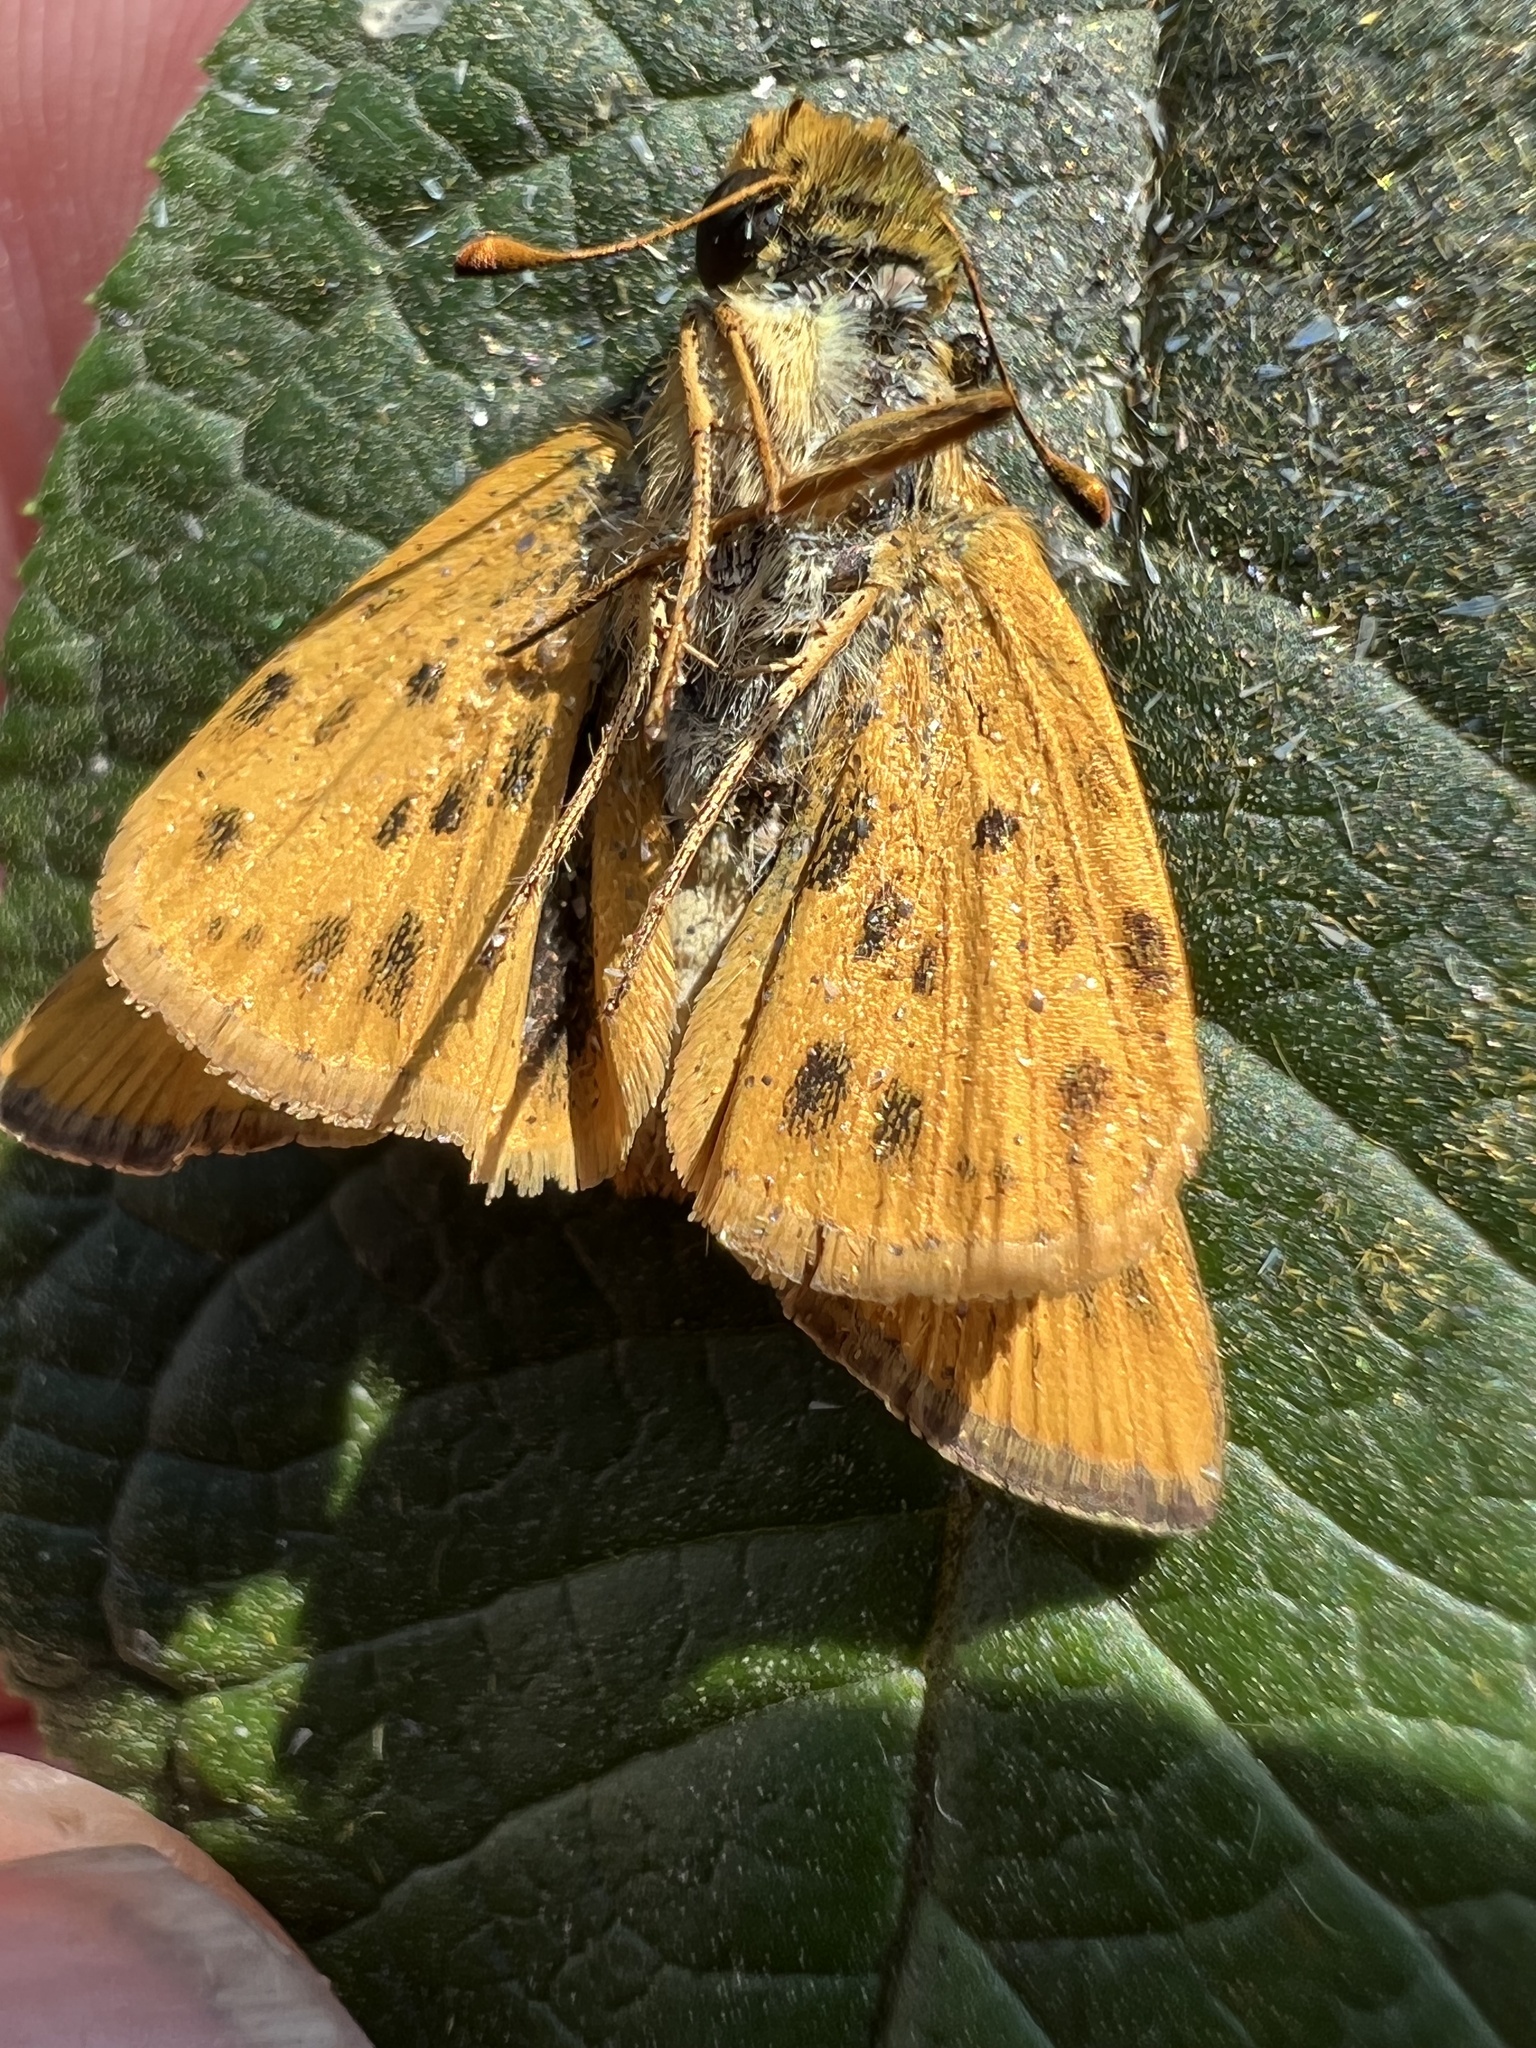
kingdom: Animalia
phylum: Arthropoda
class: Insecta
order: Lepidoptera
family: Hesperiidae
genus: Hylephila
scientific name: Hylephila phyleus
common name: Fiery skipper
